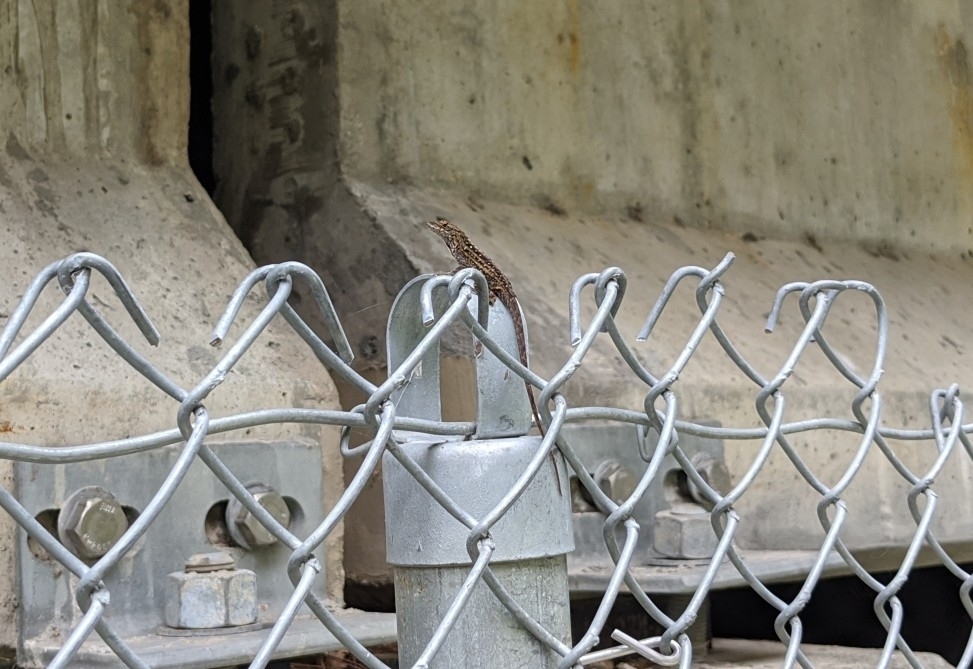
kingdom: Animalia
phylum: Chordata
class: Squamata
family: Dactyloidae
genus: Anolis
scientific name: Anolis sagrei
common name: Brown anole
